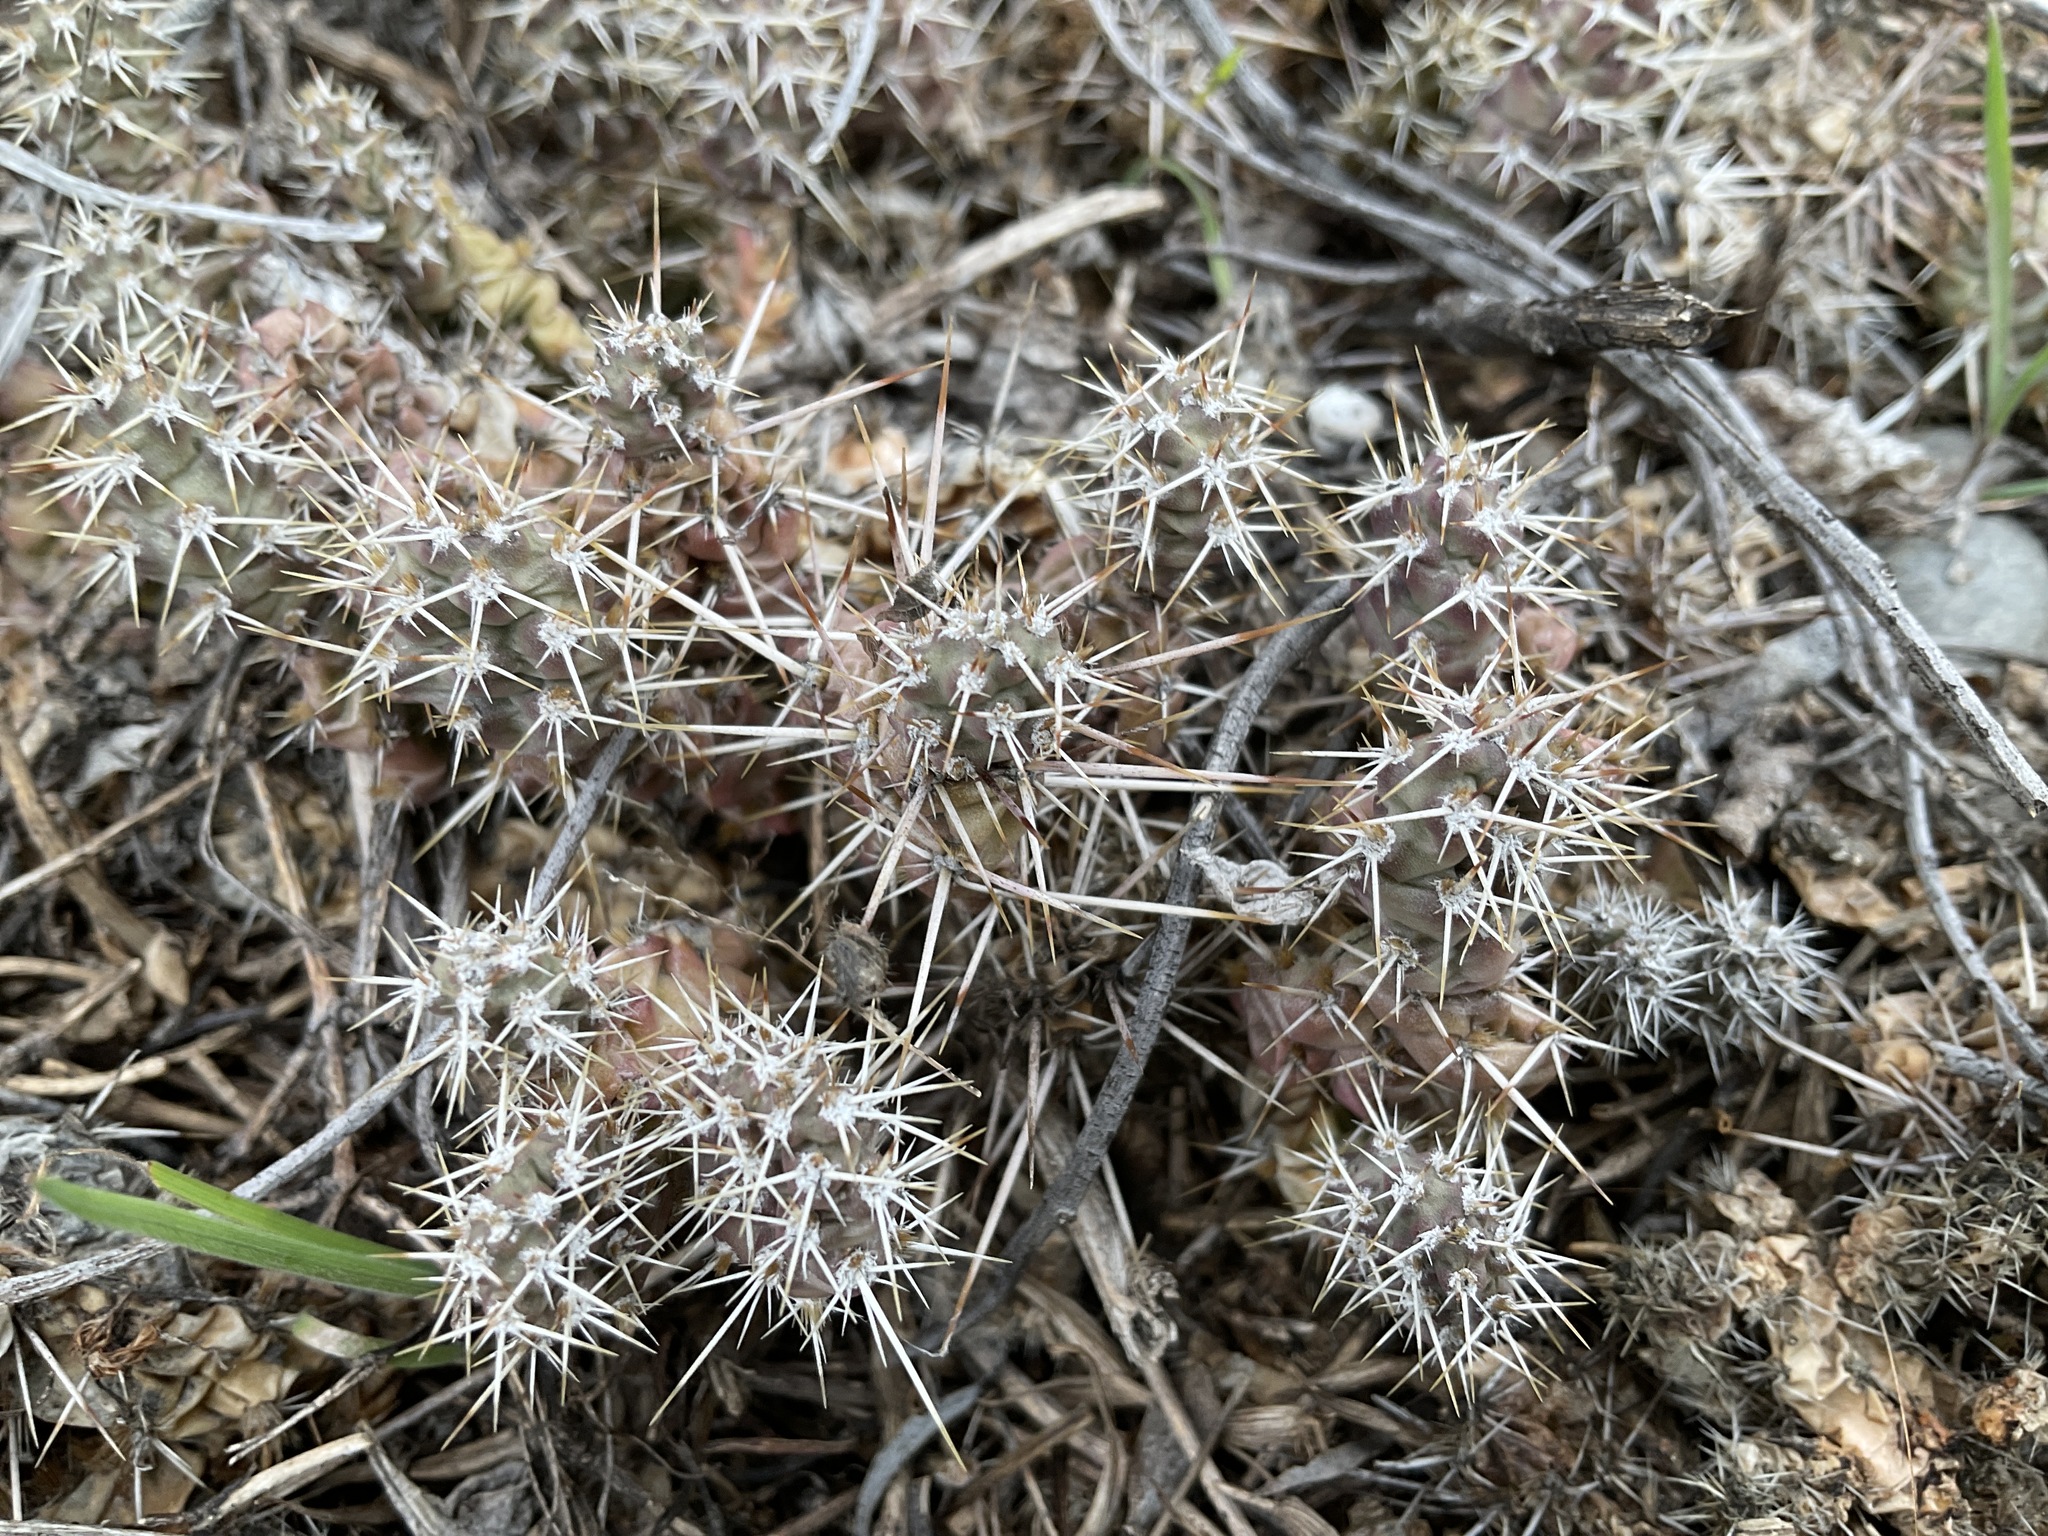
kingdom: Plantae
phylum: Tracheophyta
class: Magnoliopsida
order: Caryophyllales
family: Cactaceae
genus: Opuntia
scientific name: Opuntia fragilis
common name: Brittle cactus
